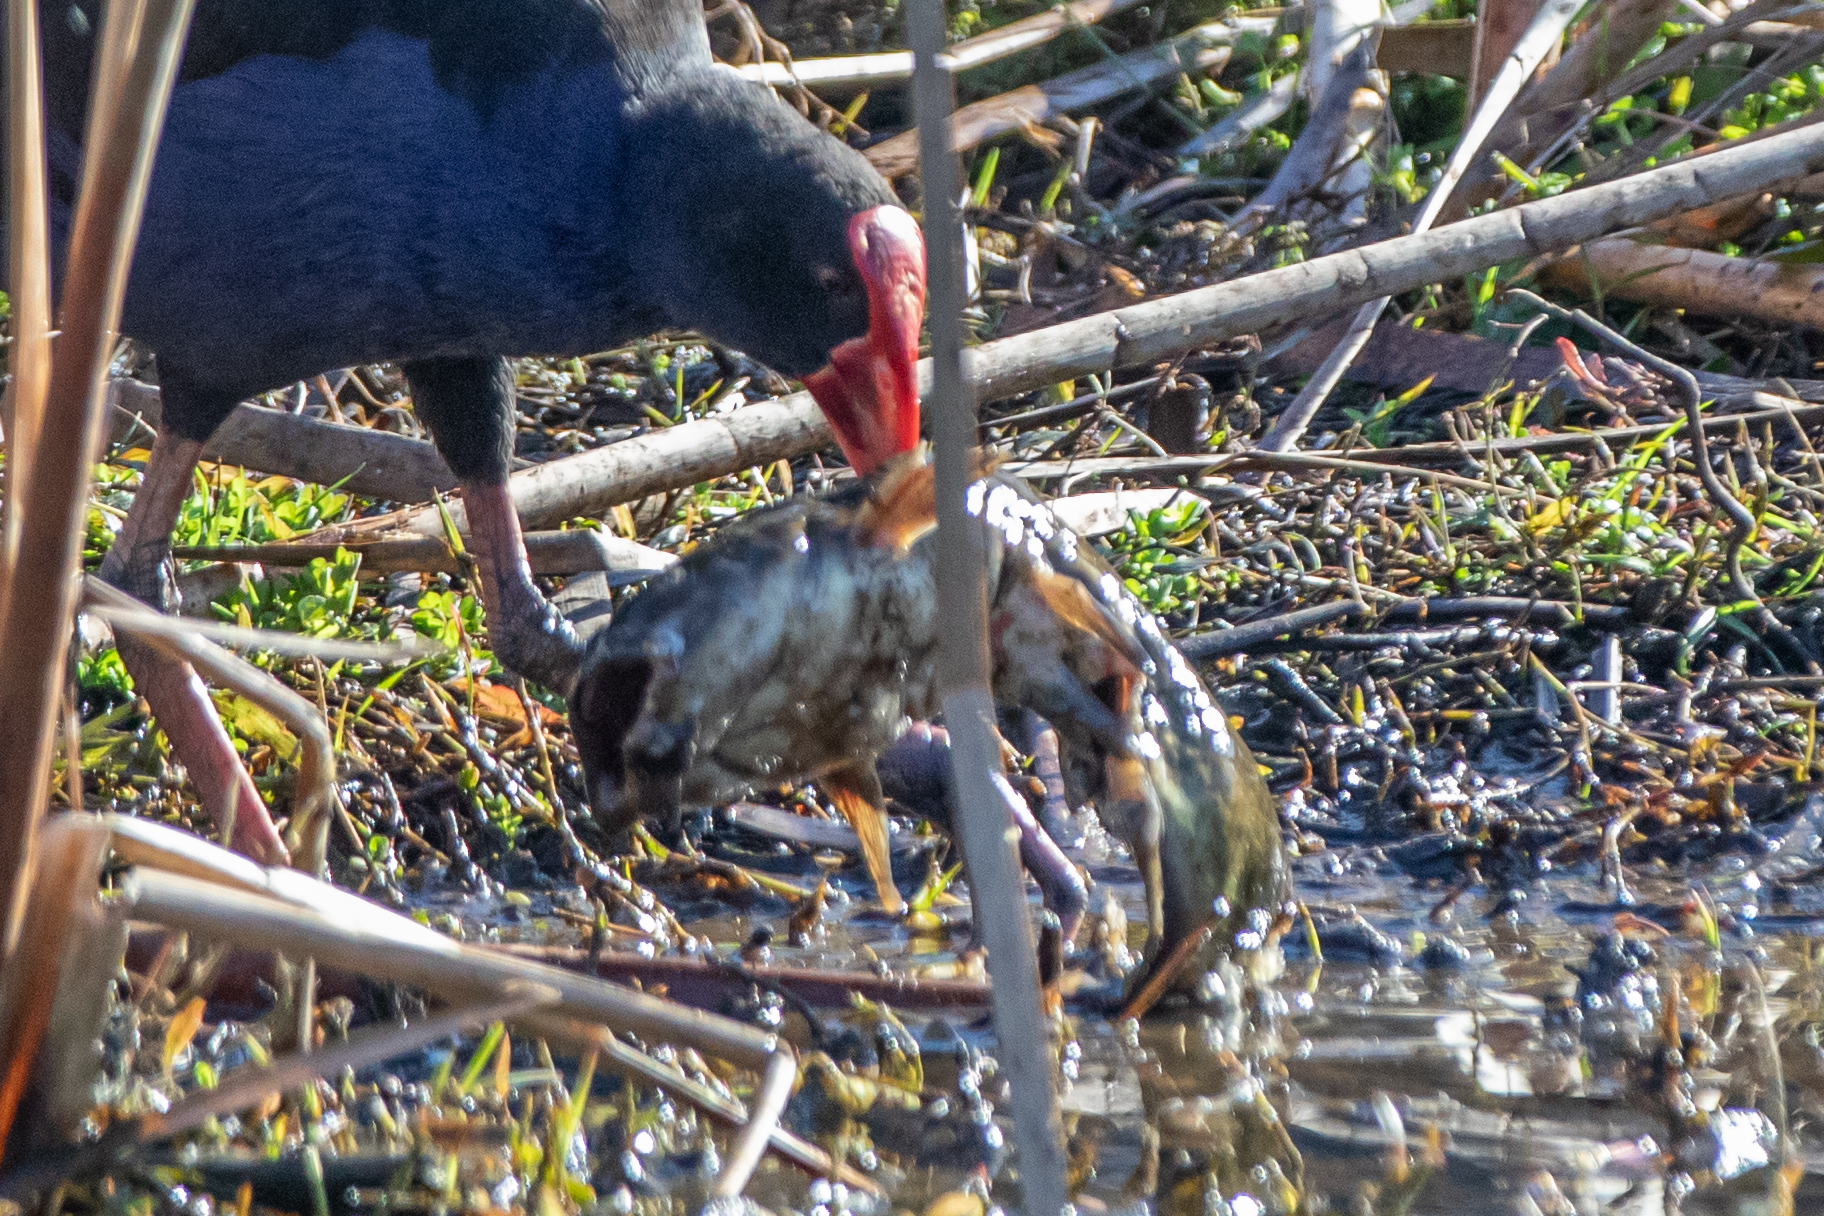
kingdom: Animalia
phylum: Chordata
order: Siluriformes
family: Ictaluridae
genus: Ameiurus
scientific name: Ameiurus nebulosus
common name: Brown bullhead
